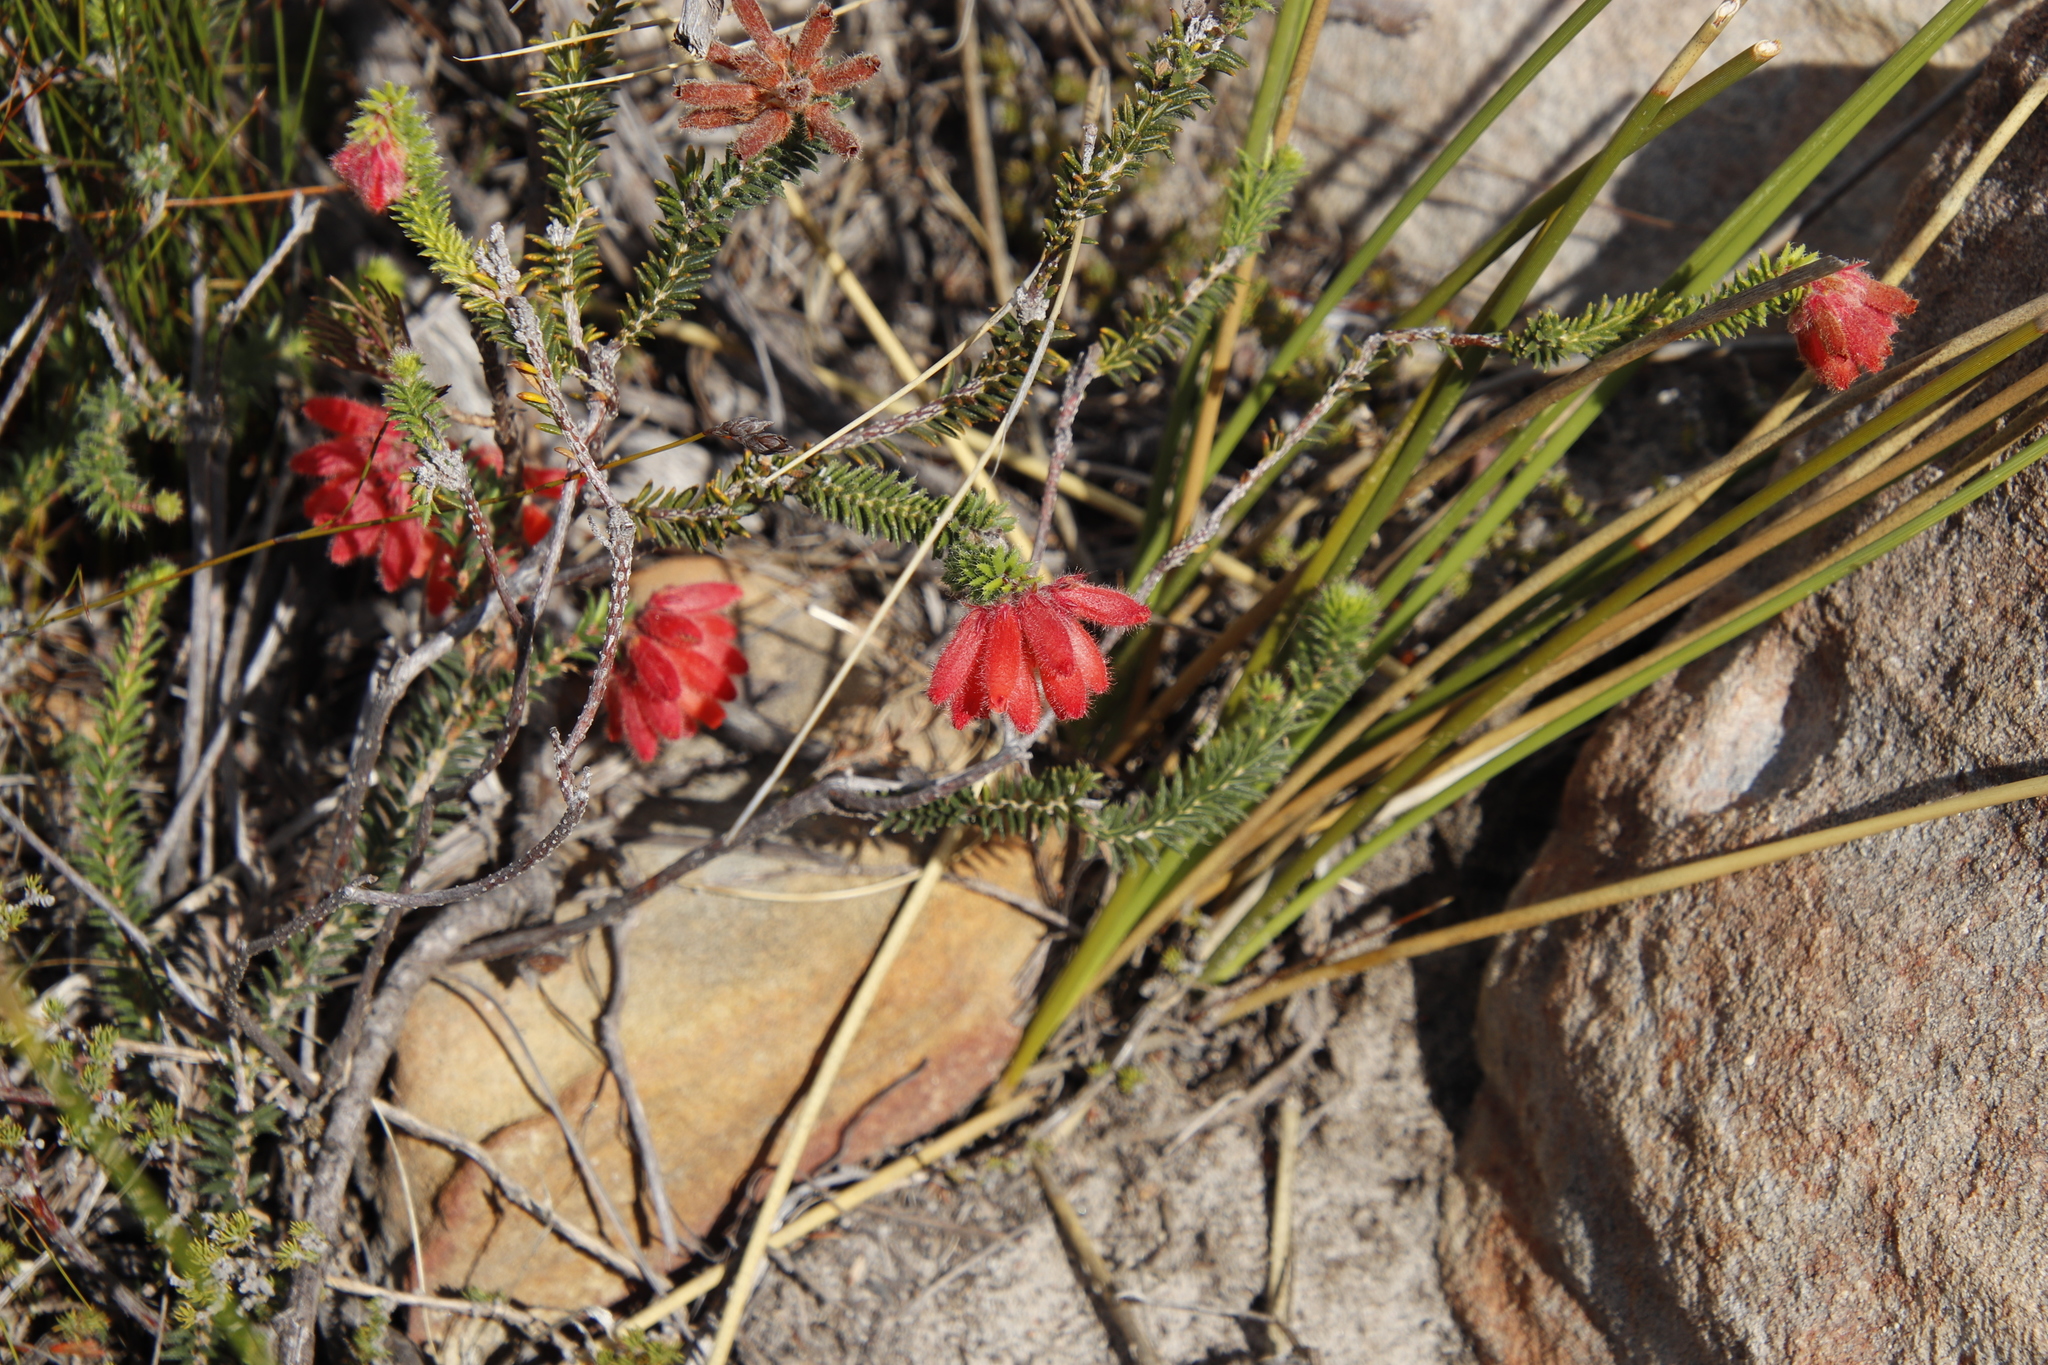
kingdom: Plantae
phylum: Tracheophyta
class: Magnoliopsida
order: Ericales
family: Ericaceae
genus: Erica
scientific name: Erica cerinthoides
